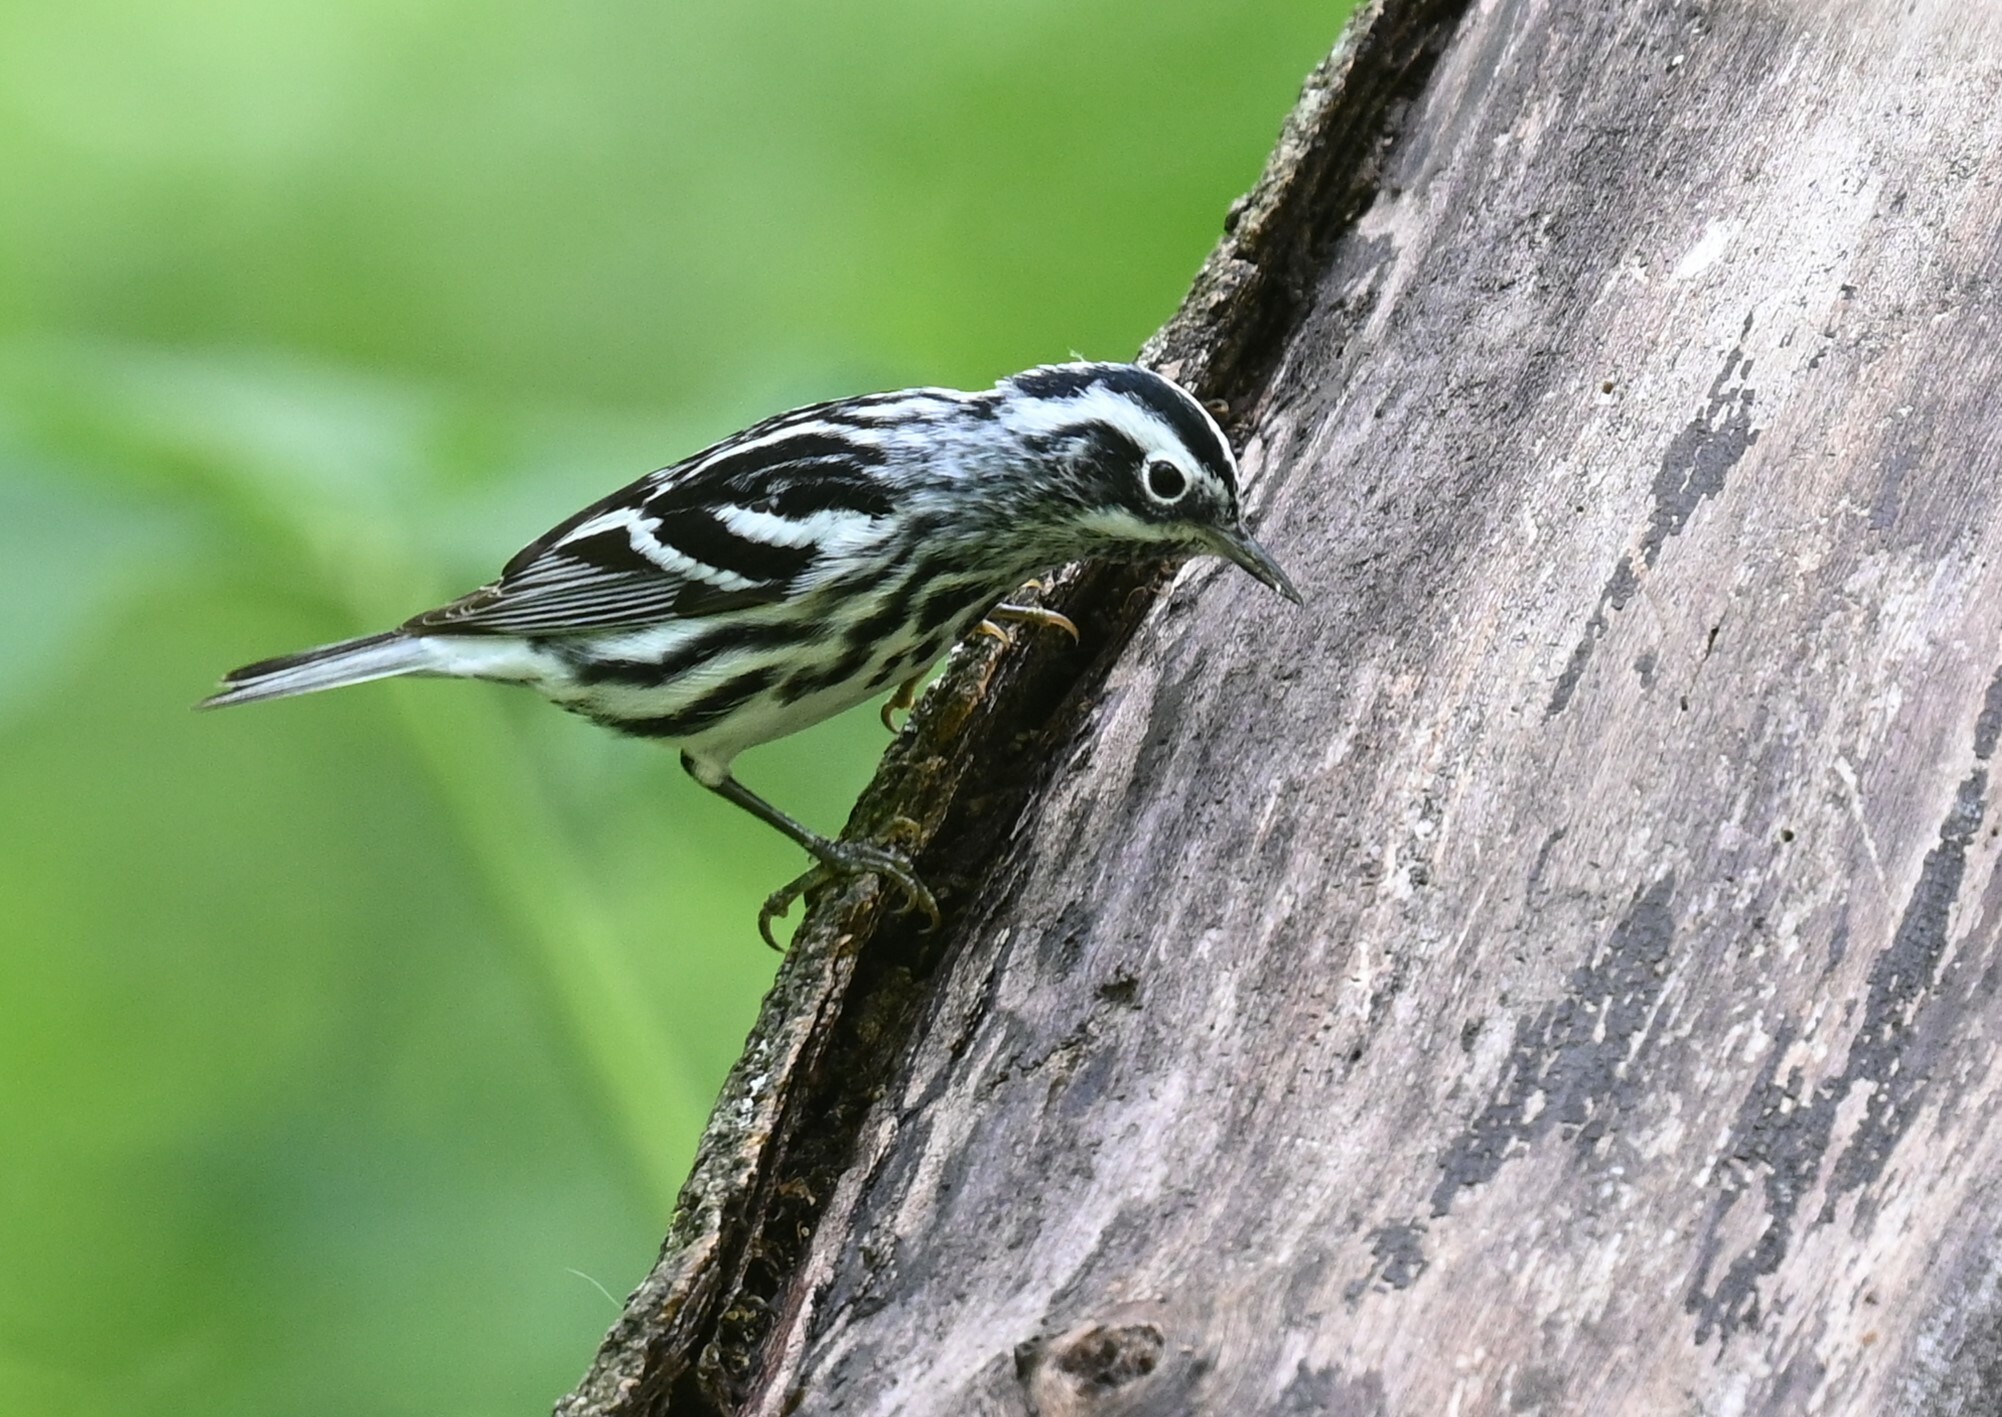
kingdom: Animalia
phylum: Chordata
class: Aves
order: Passeriformes
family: Parulidae
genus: Mniotilta
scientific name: Mniotilta varia
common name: Black-and-white warbler
